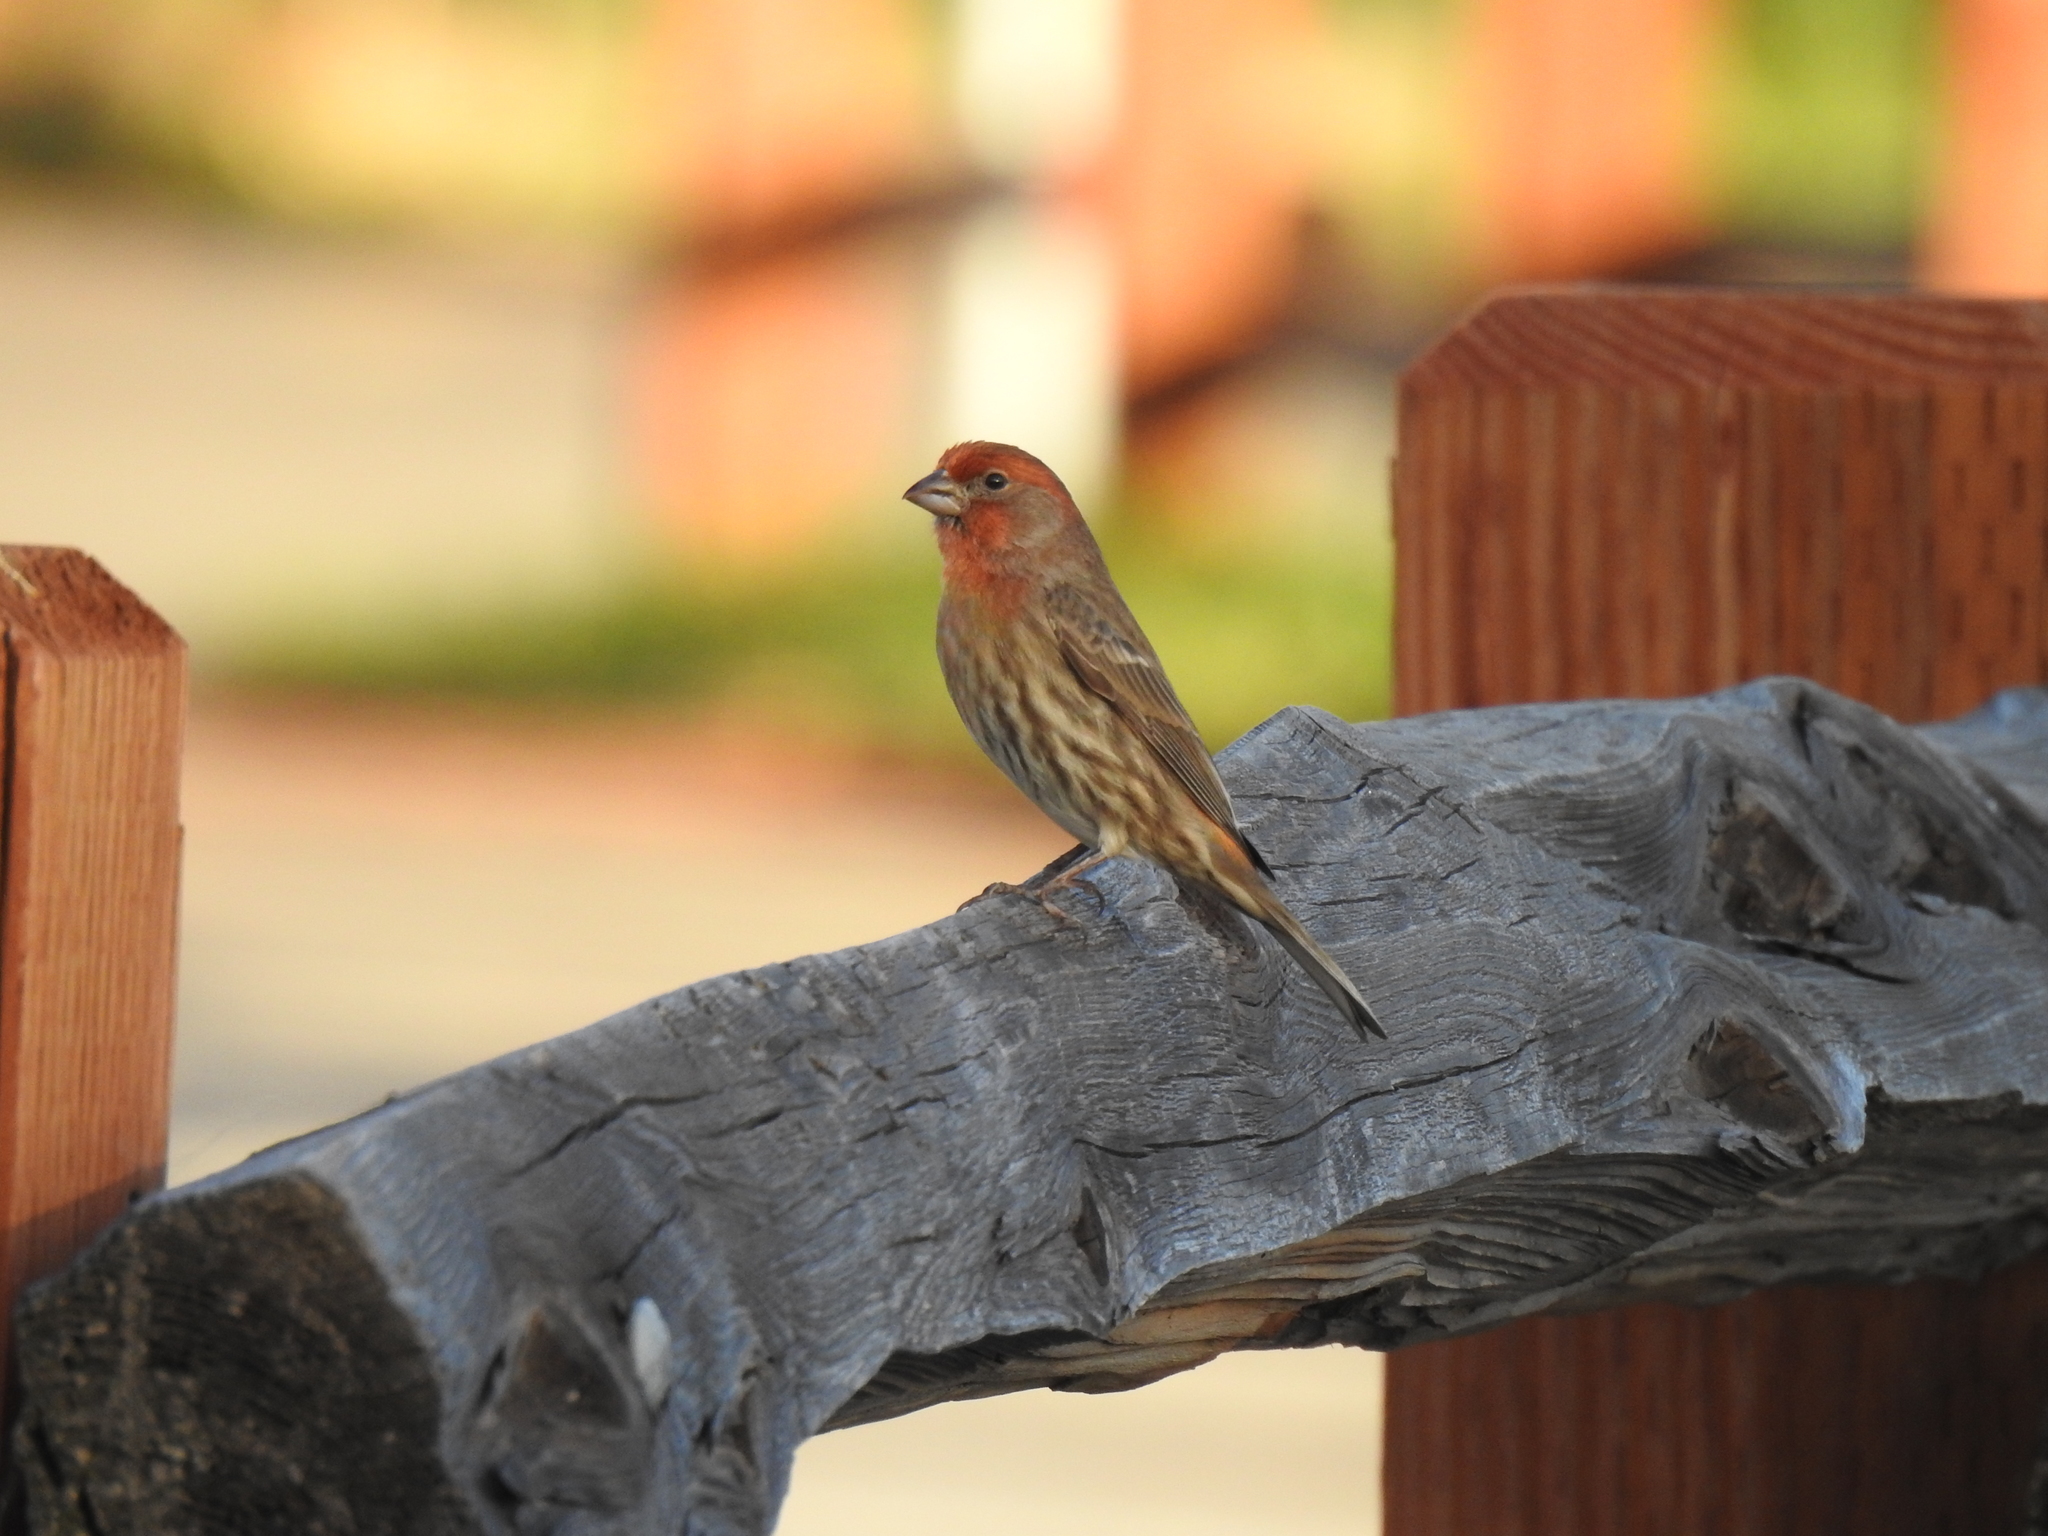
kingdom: Animalia
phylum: Chordata
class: Aves
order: Passeriformes
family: Fringillidae
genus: Haemorhous
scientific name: Haemorhous mexicanus
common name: House finch
